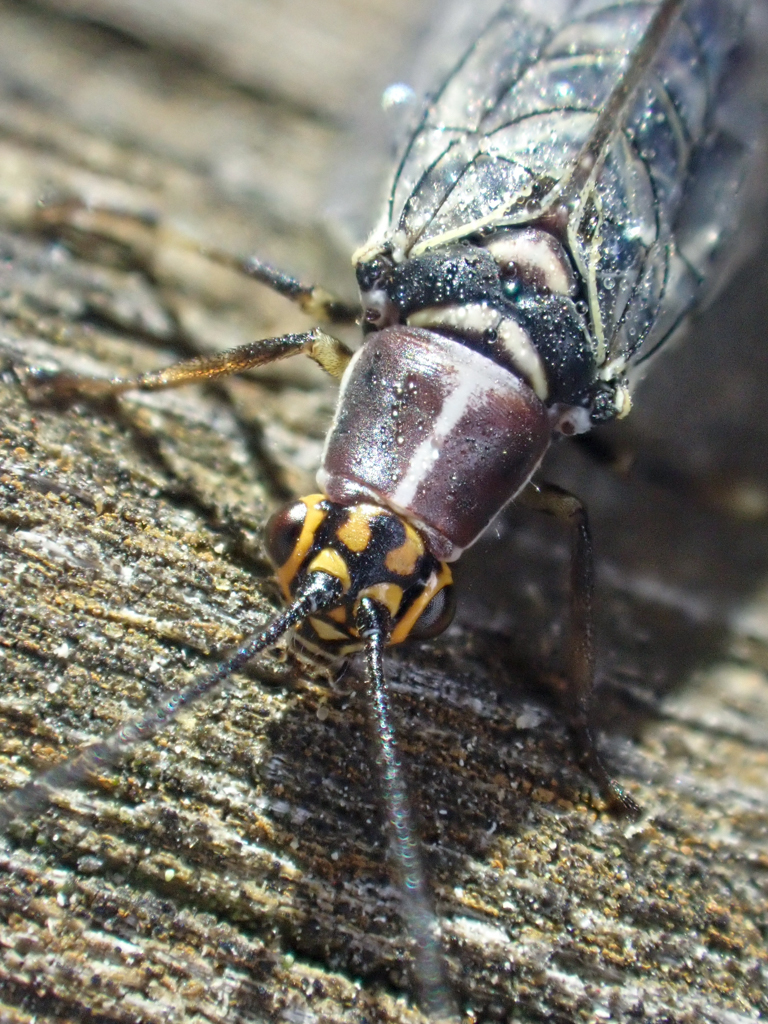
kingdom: Animalia
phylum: Arthropoda
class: Insecta
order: Neuroptera
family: Chrysopidae
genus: Nothochrysa
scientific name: Nothochrysa californica
